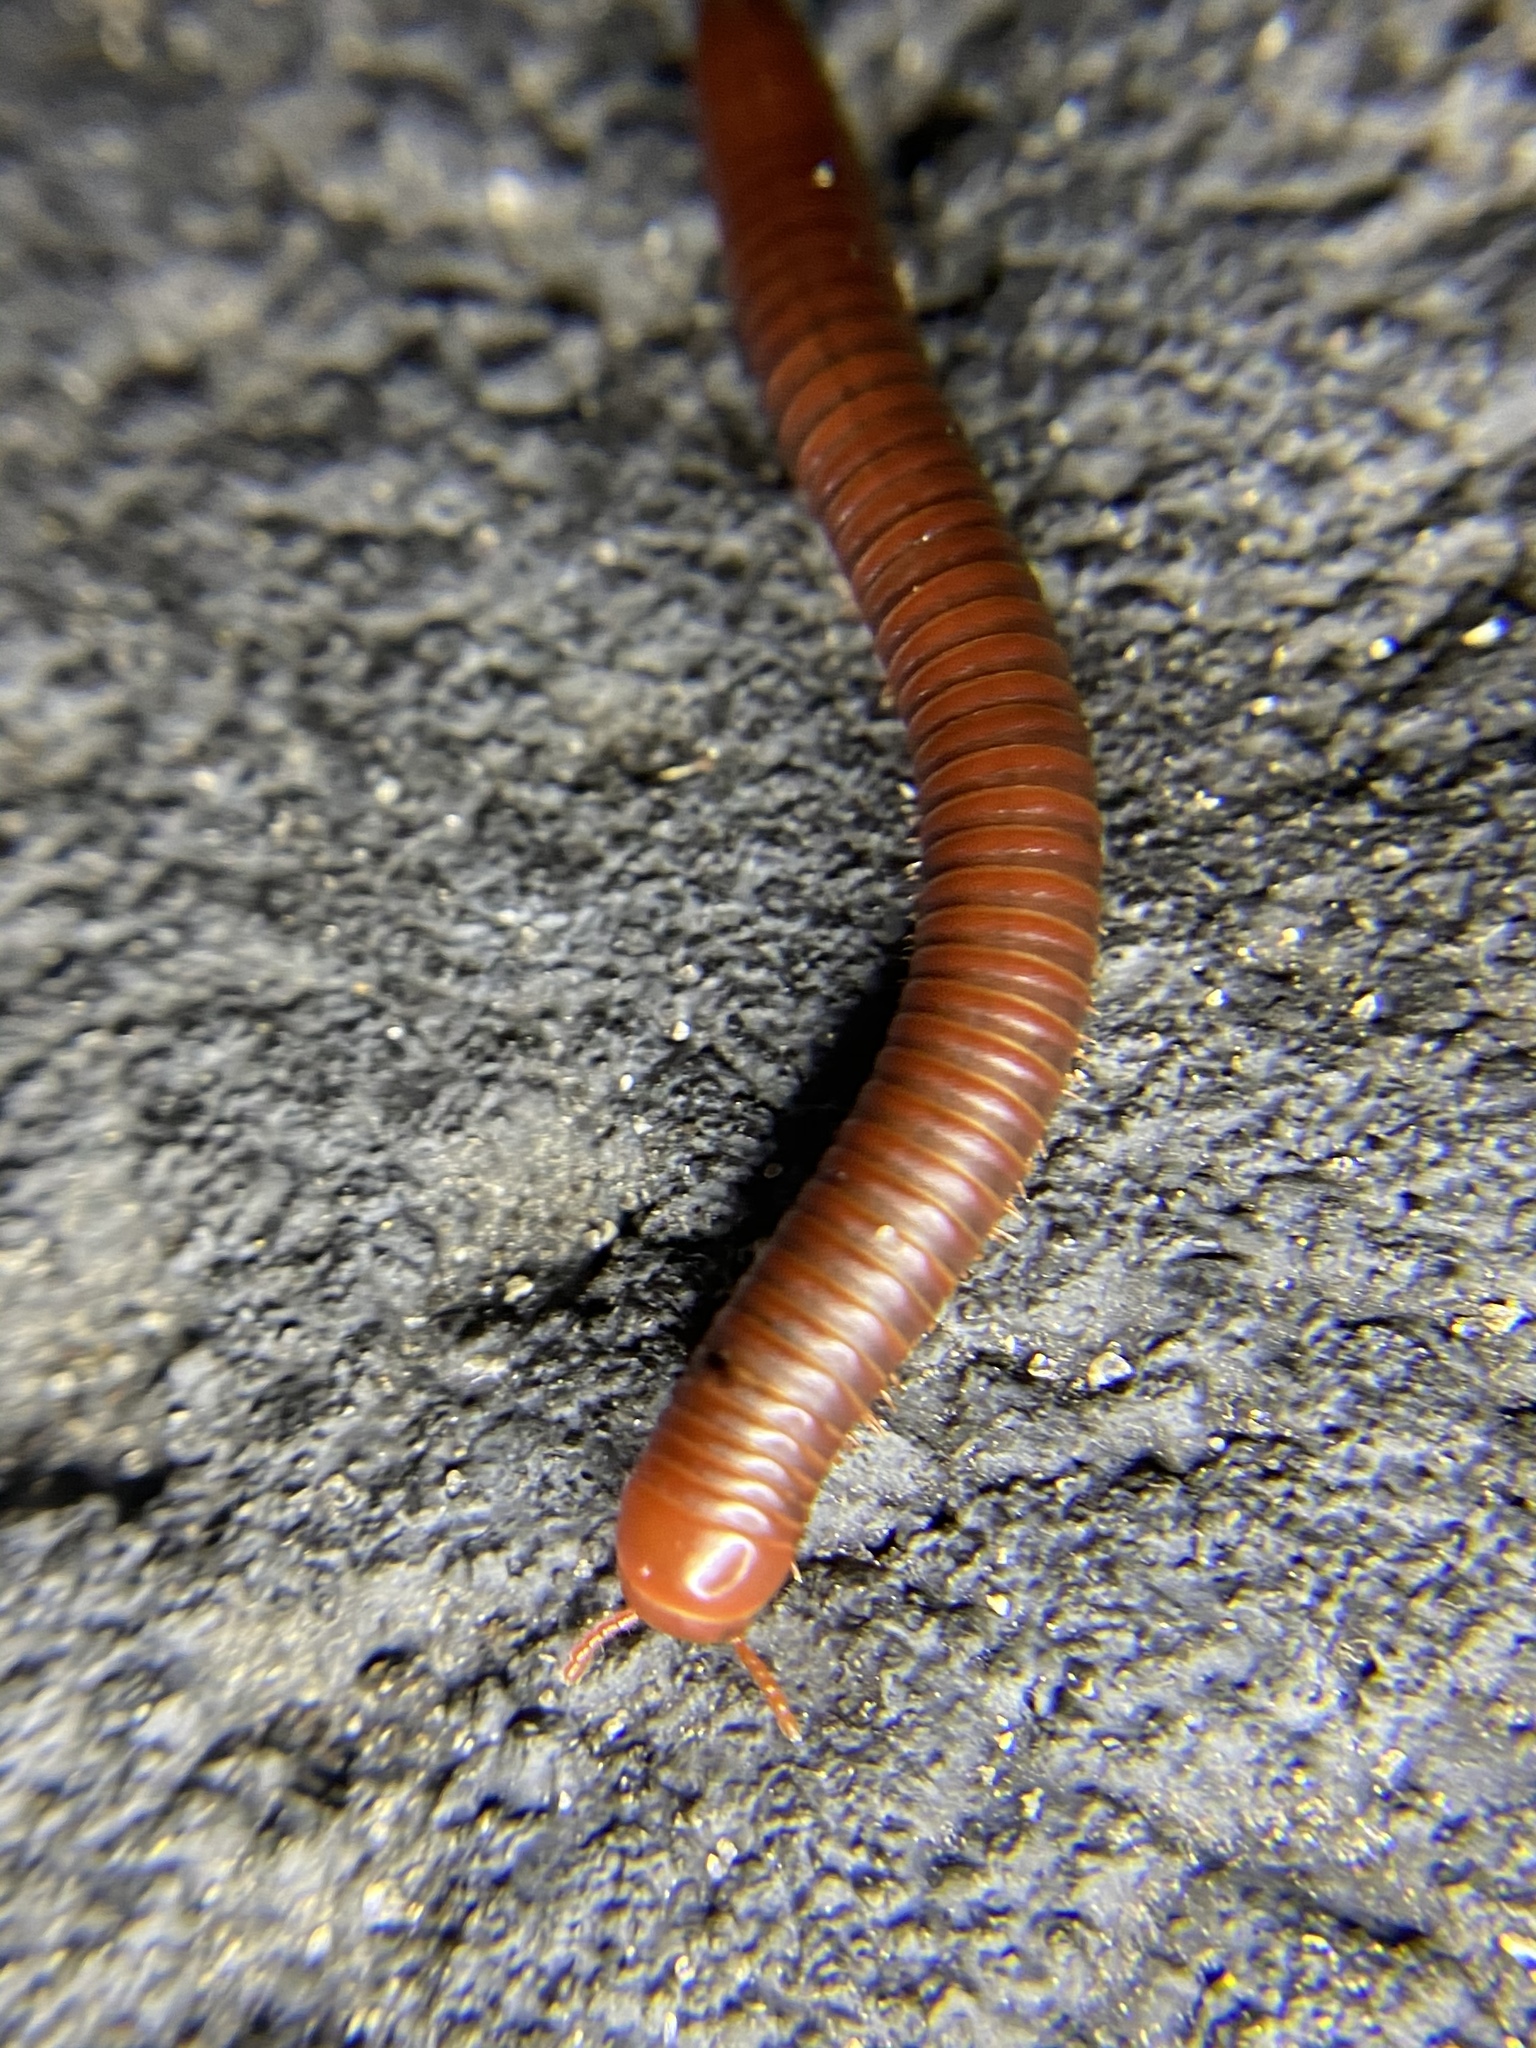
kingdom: Animalia
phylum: Arthropoda
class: Diplopoda
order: Spirobolida
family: Pachybolidae
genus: Trigoniulus
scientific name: Trigoniulus corallinus
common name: Millipede
